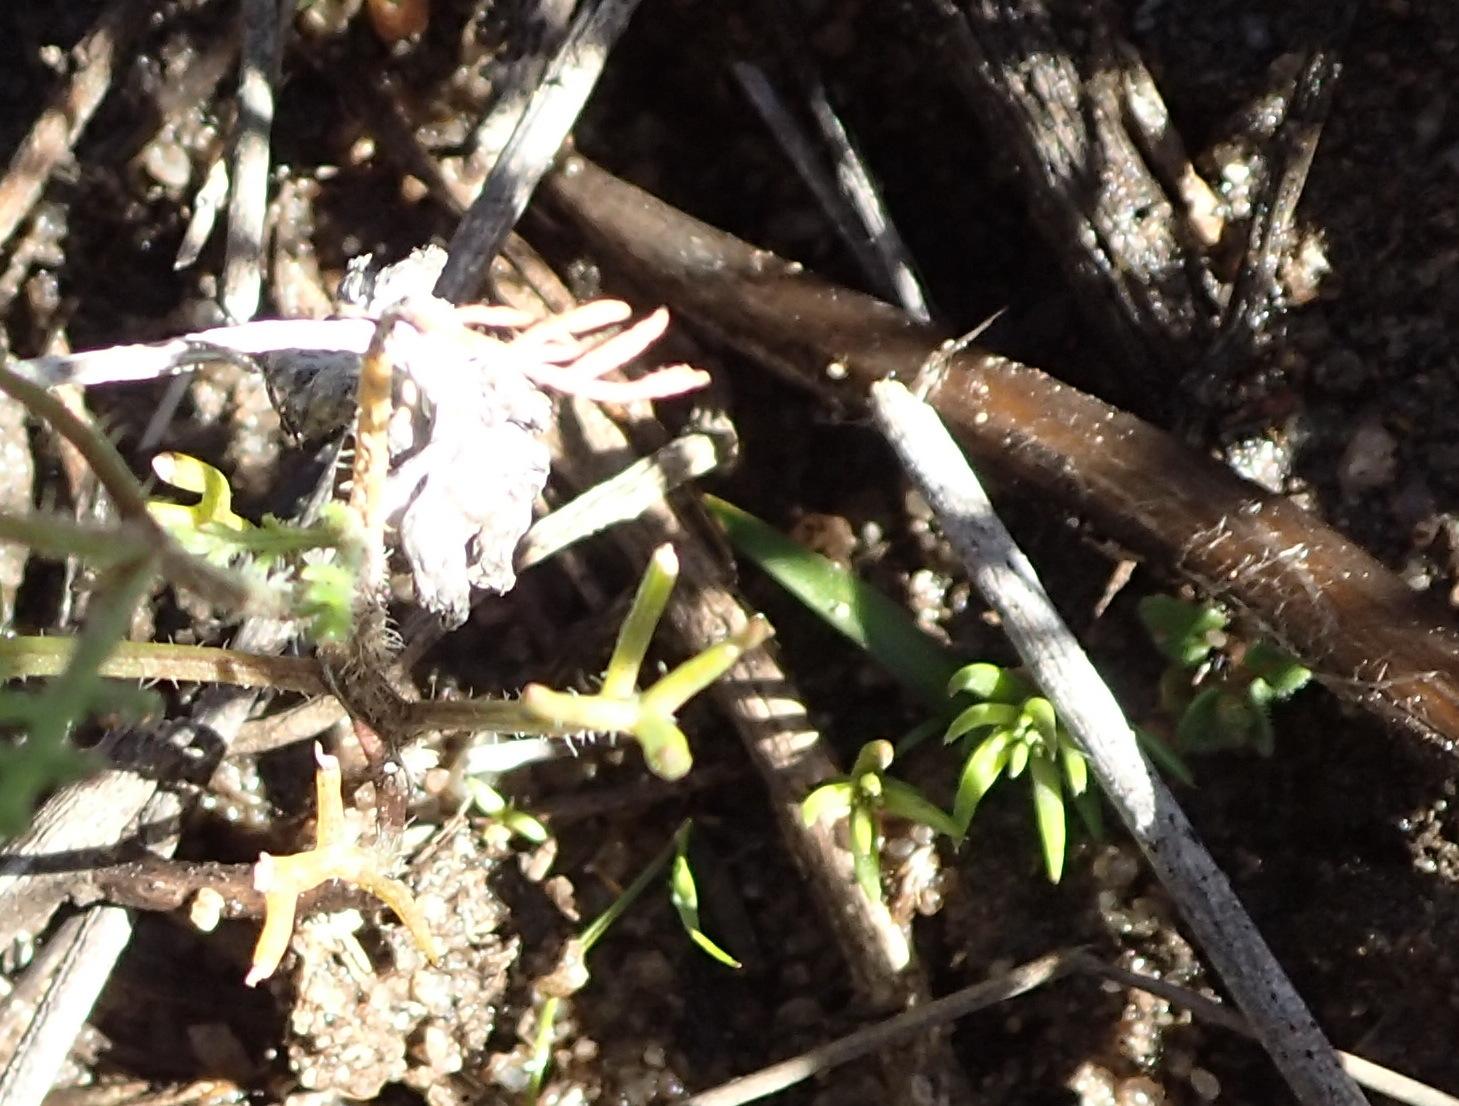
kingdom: Plantae
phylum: Tracheophyta
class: Magnoliopsida
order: Brassicales
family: Brassicaceae
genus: Heliophila
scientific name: Heliophila thunbergii
